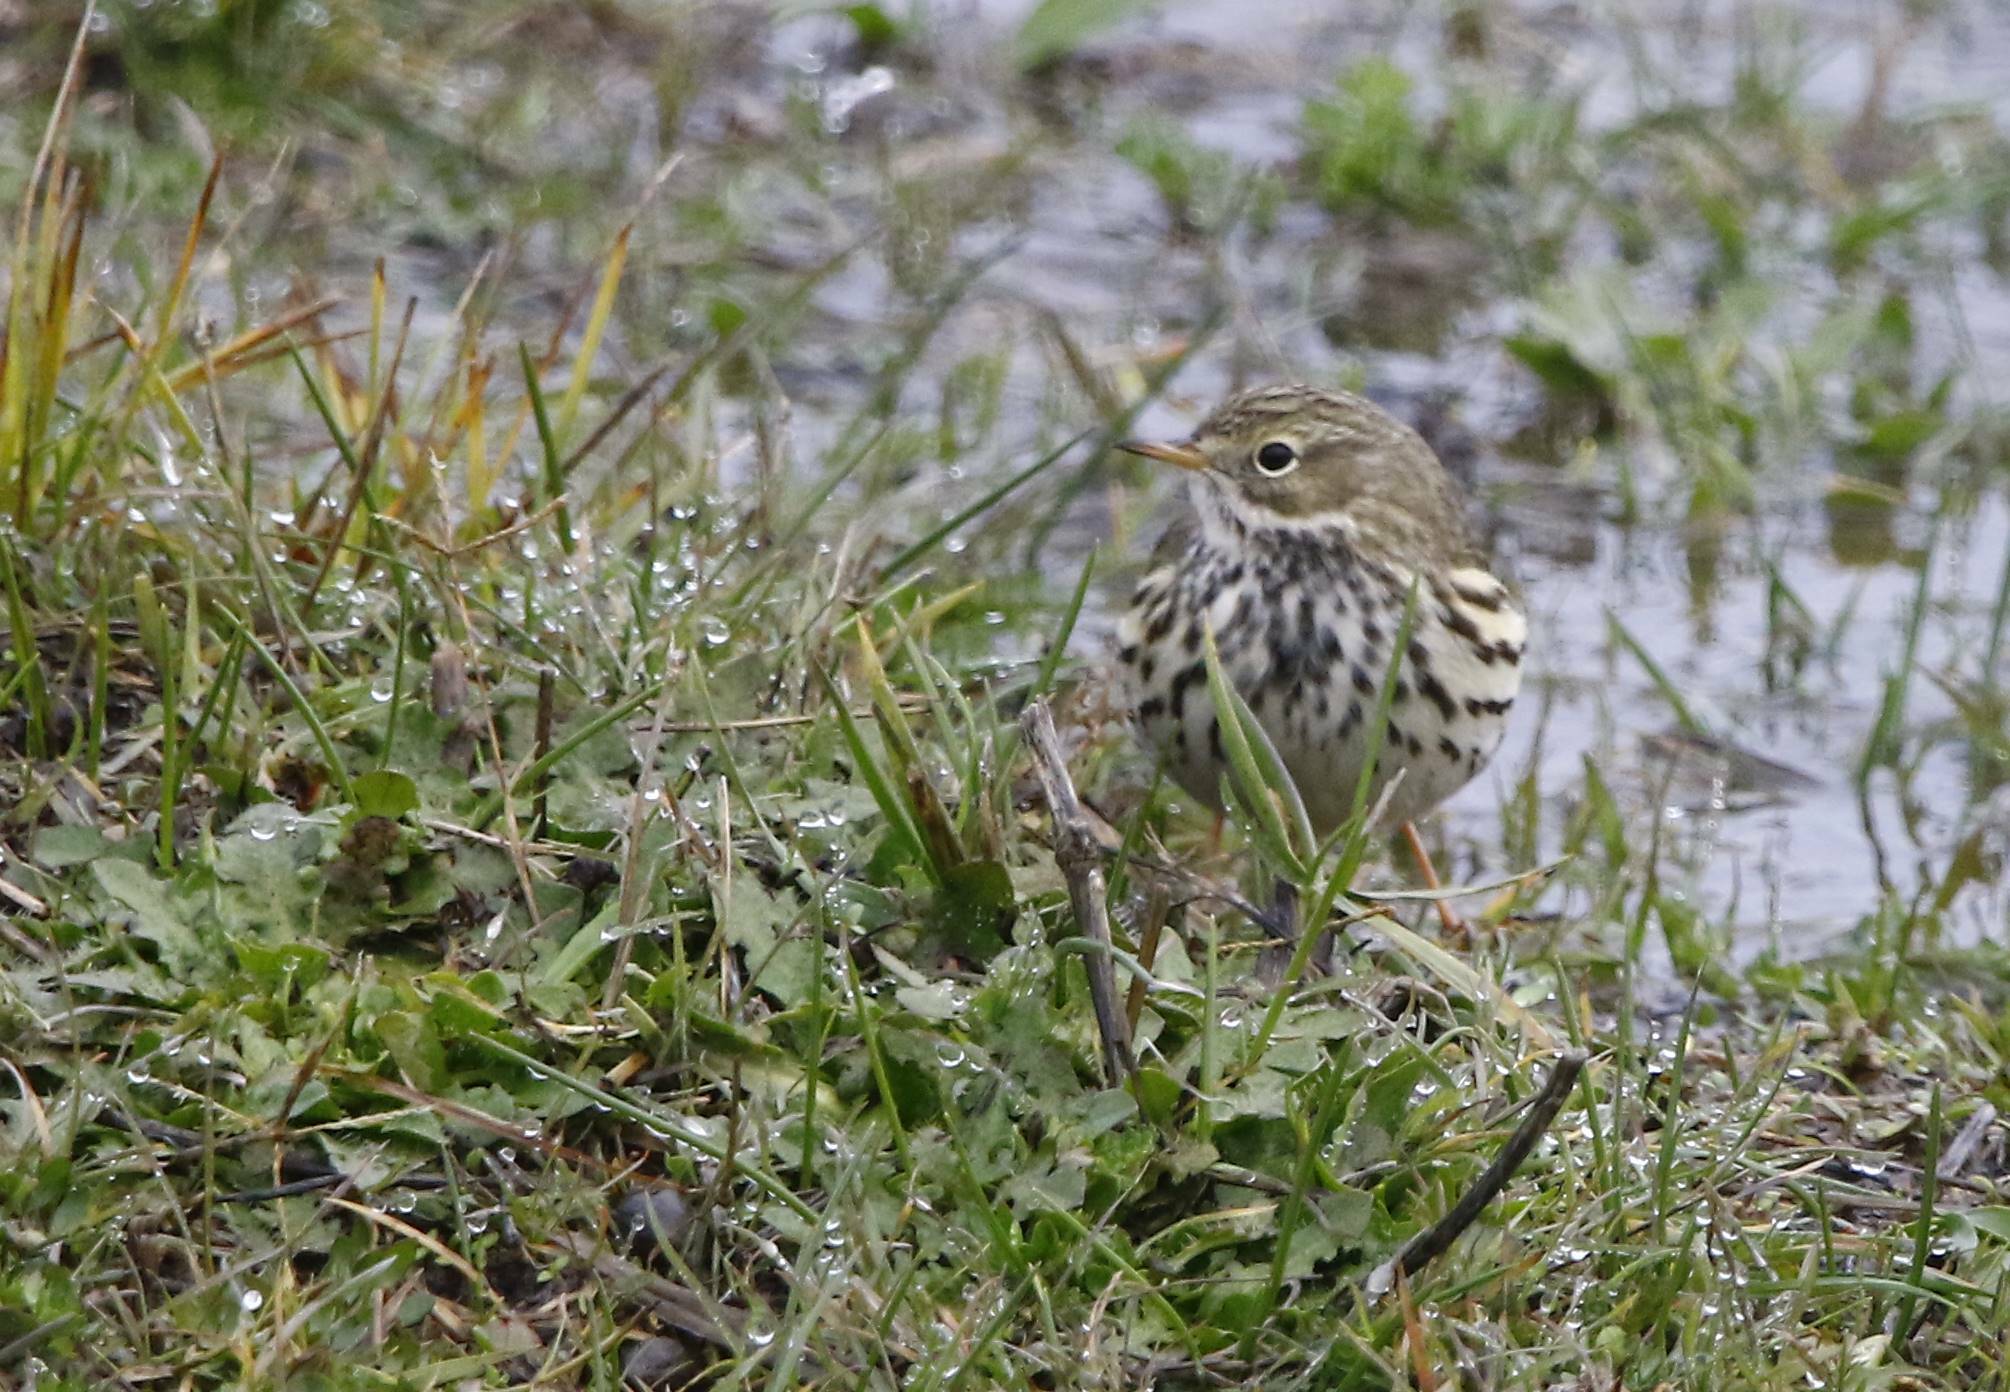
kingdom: Animalia
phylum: Chordata
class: Aves
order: Passeriformes
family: Motacillidae
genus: Anthus
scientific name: Anthus pratensis
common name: Meadow pipit
